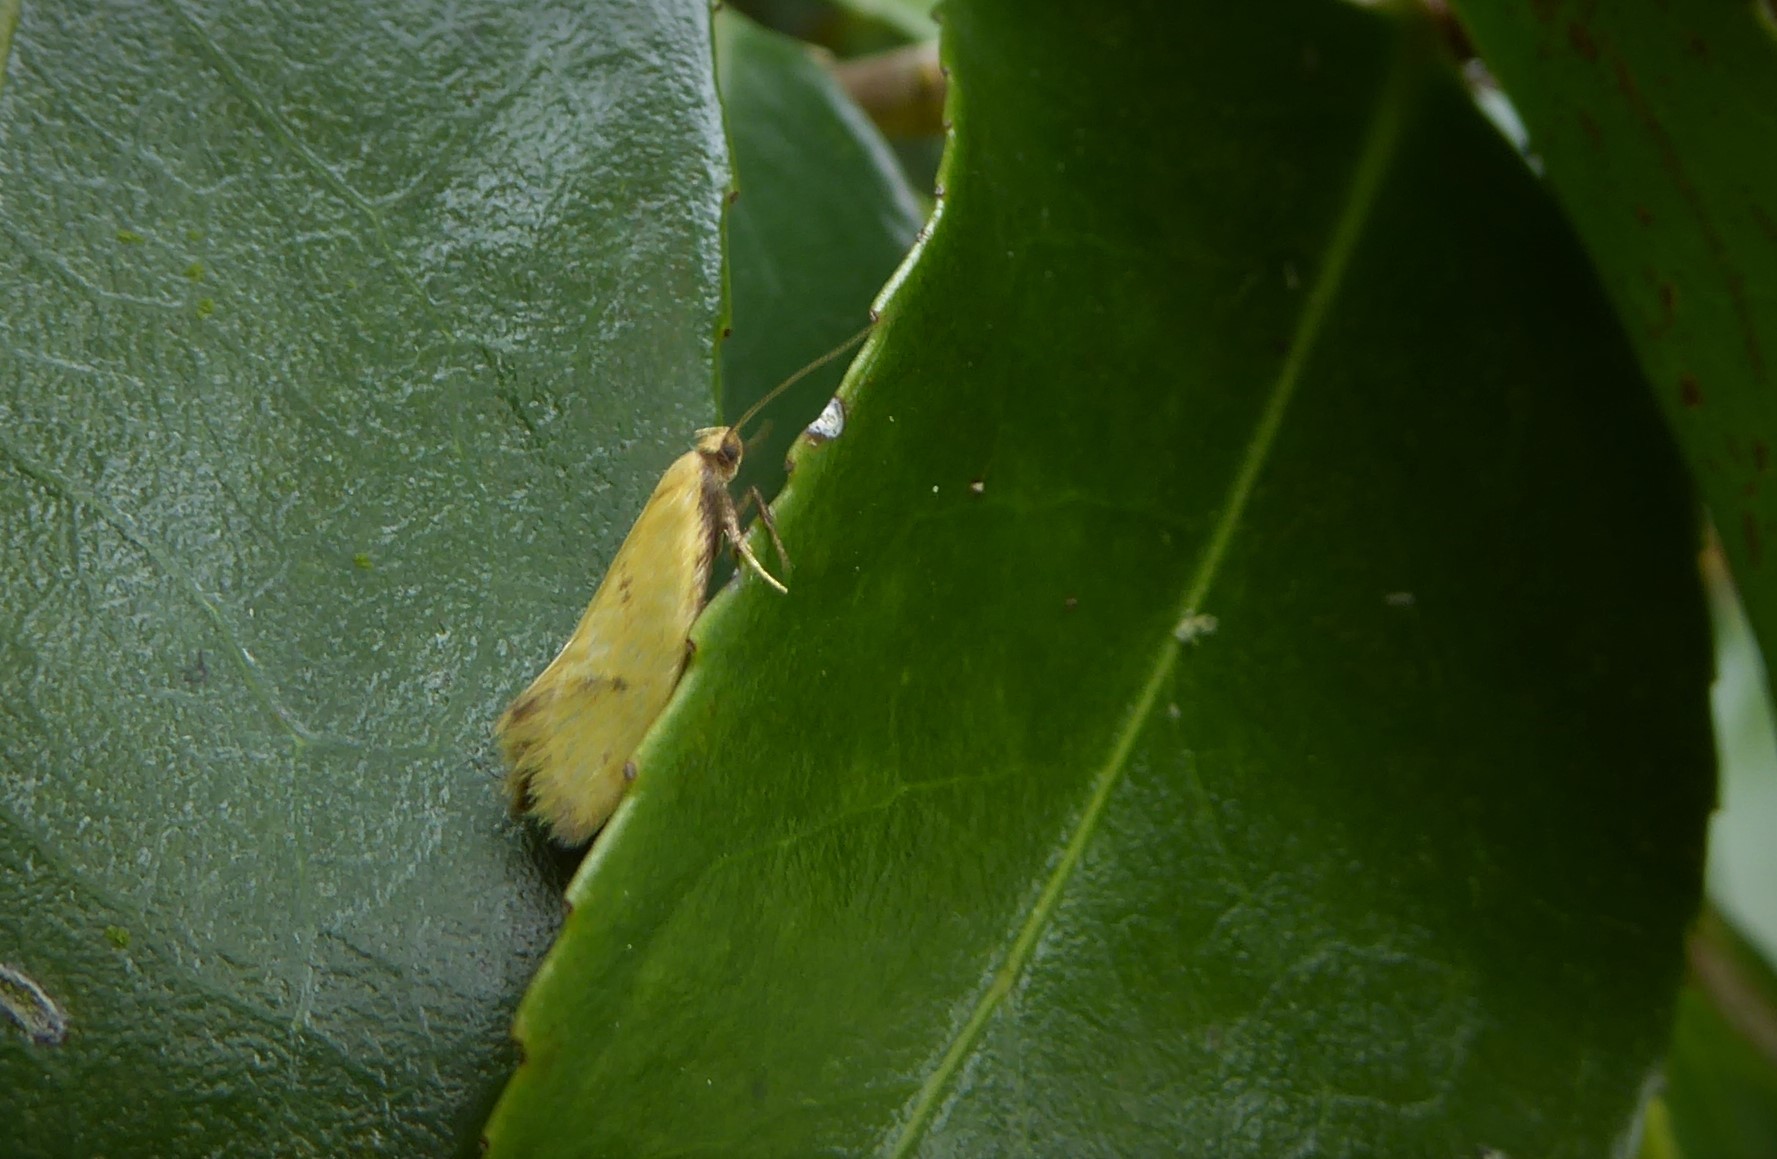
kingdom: Animalia
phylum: Arthropoda
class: Insecta
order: Lepidoptera
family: Oecophoridae
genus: Tingena
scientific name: Tingena actinias
